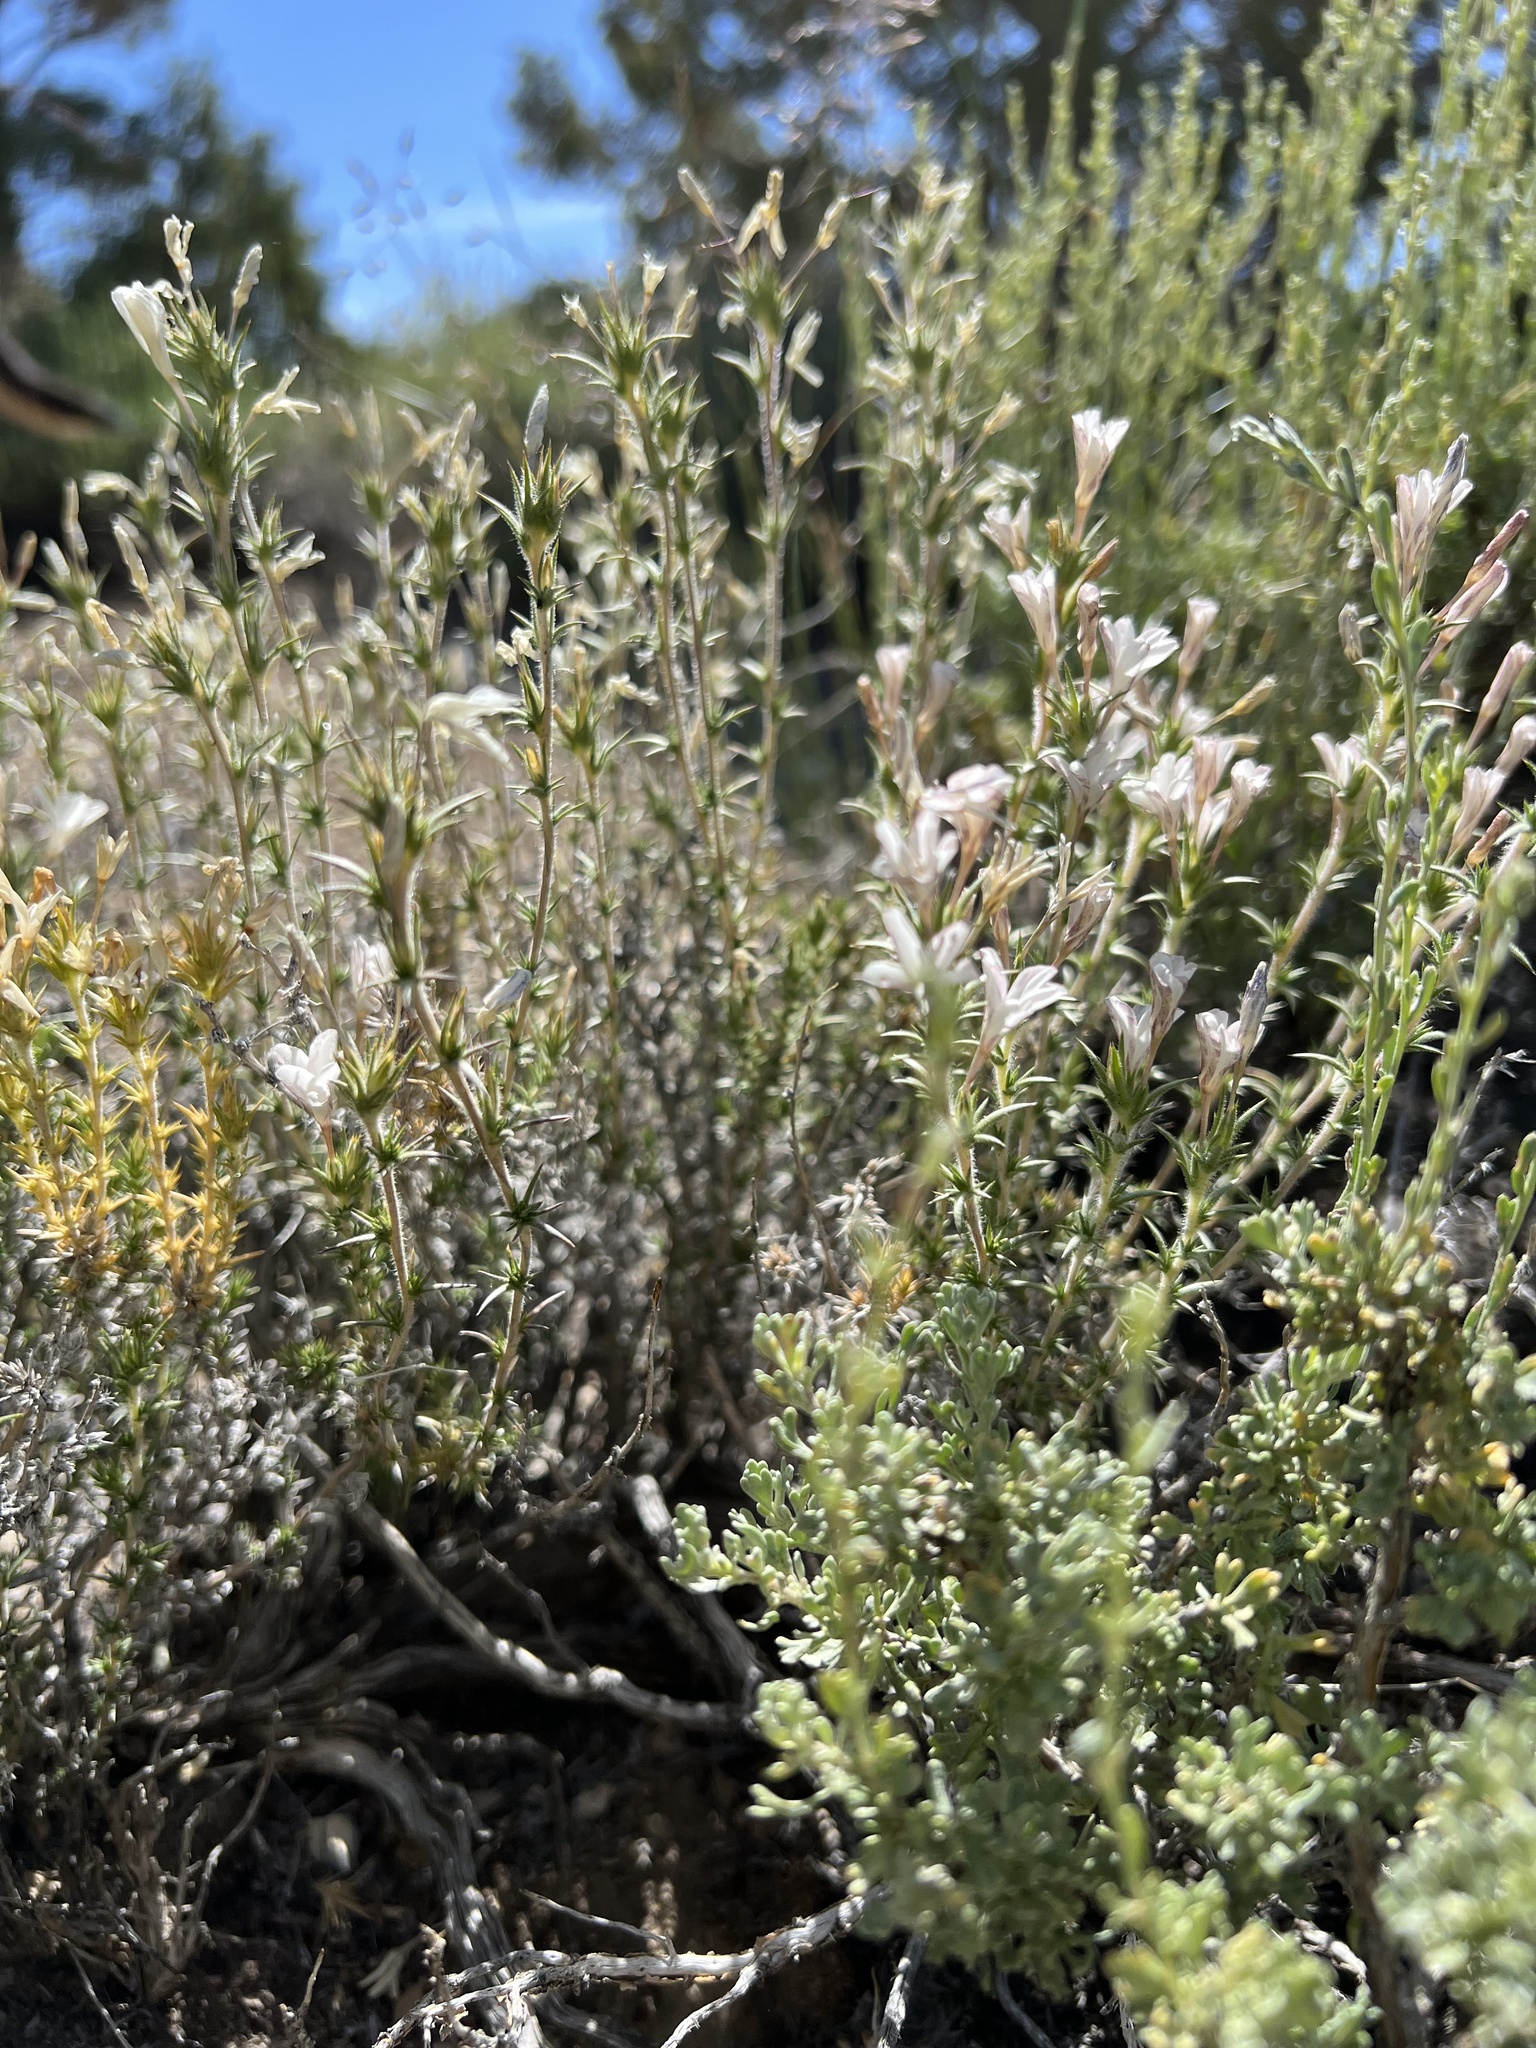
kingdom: Plantae
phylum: Tracheophyta
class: Magnoliopsida
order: Ericales
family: Polemoniaceae
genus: Linanthus
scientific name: Linanthus pungens
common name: Granite prickly phlox
